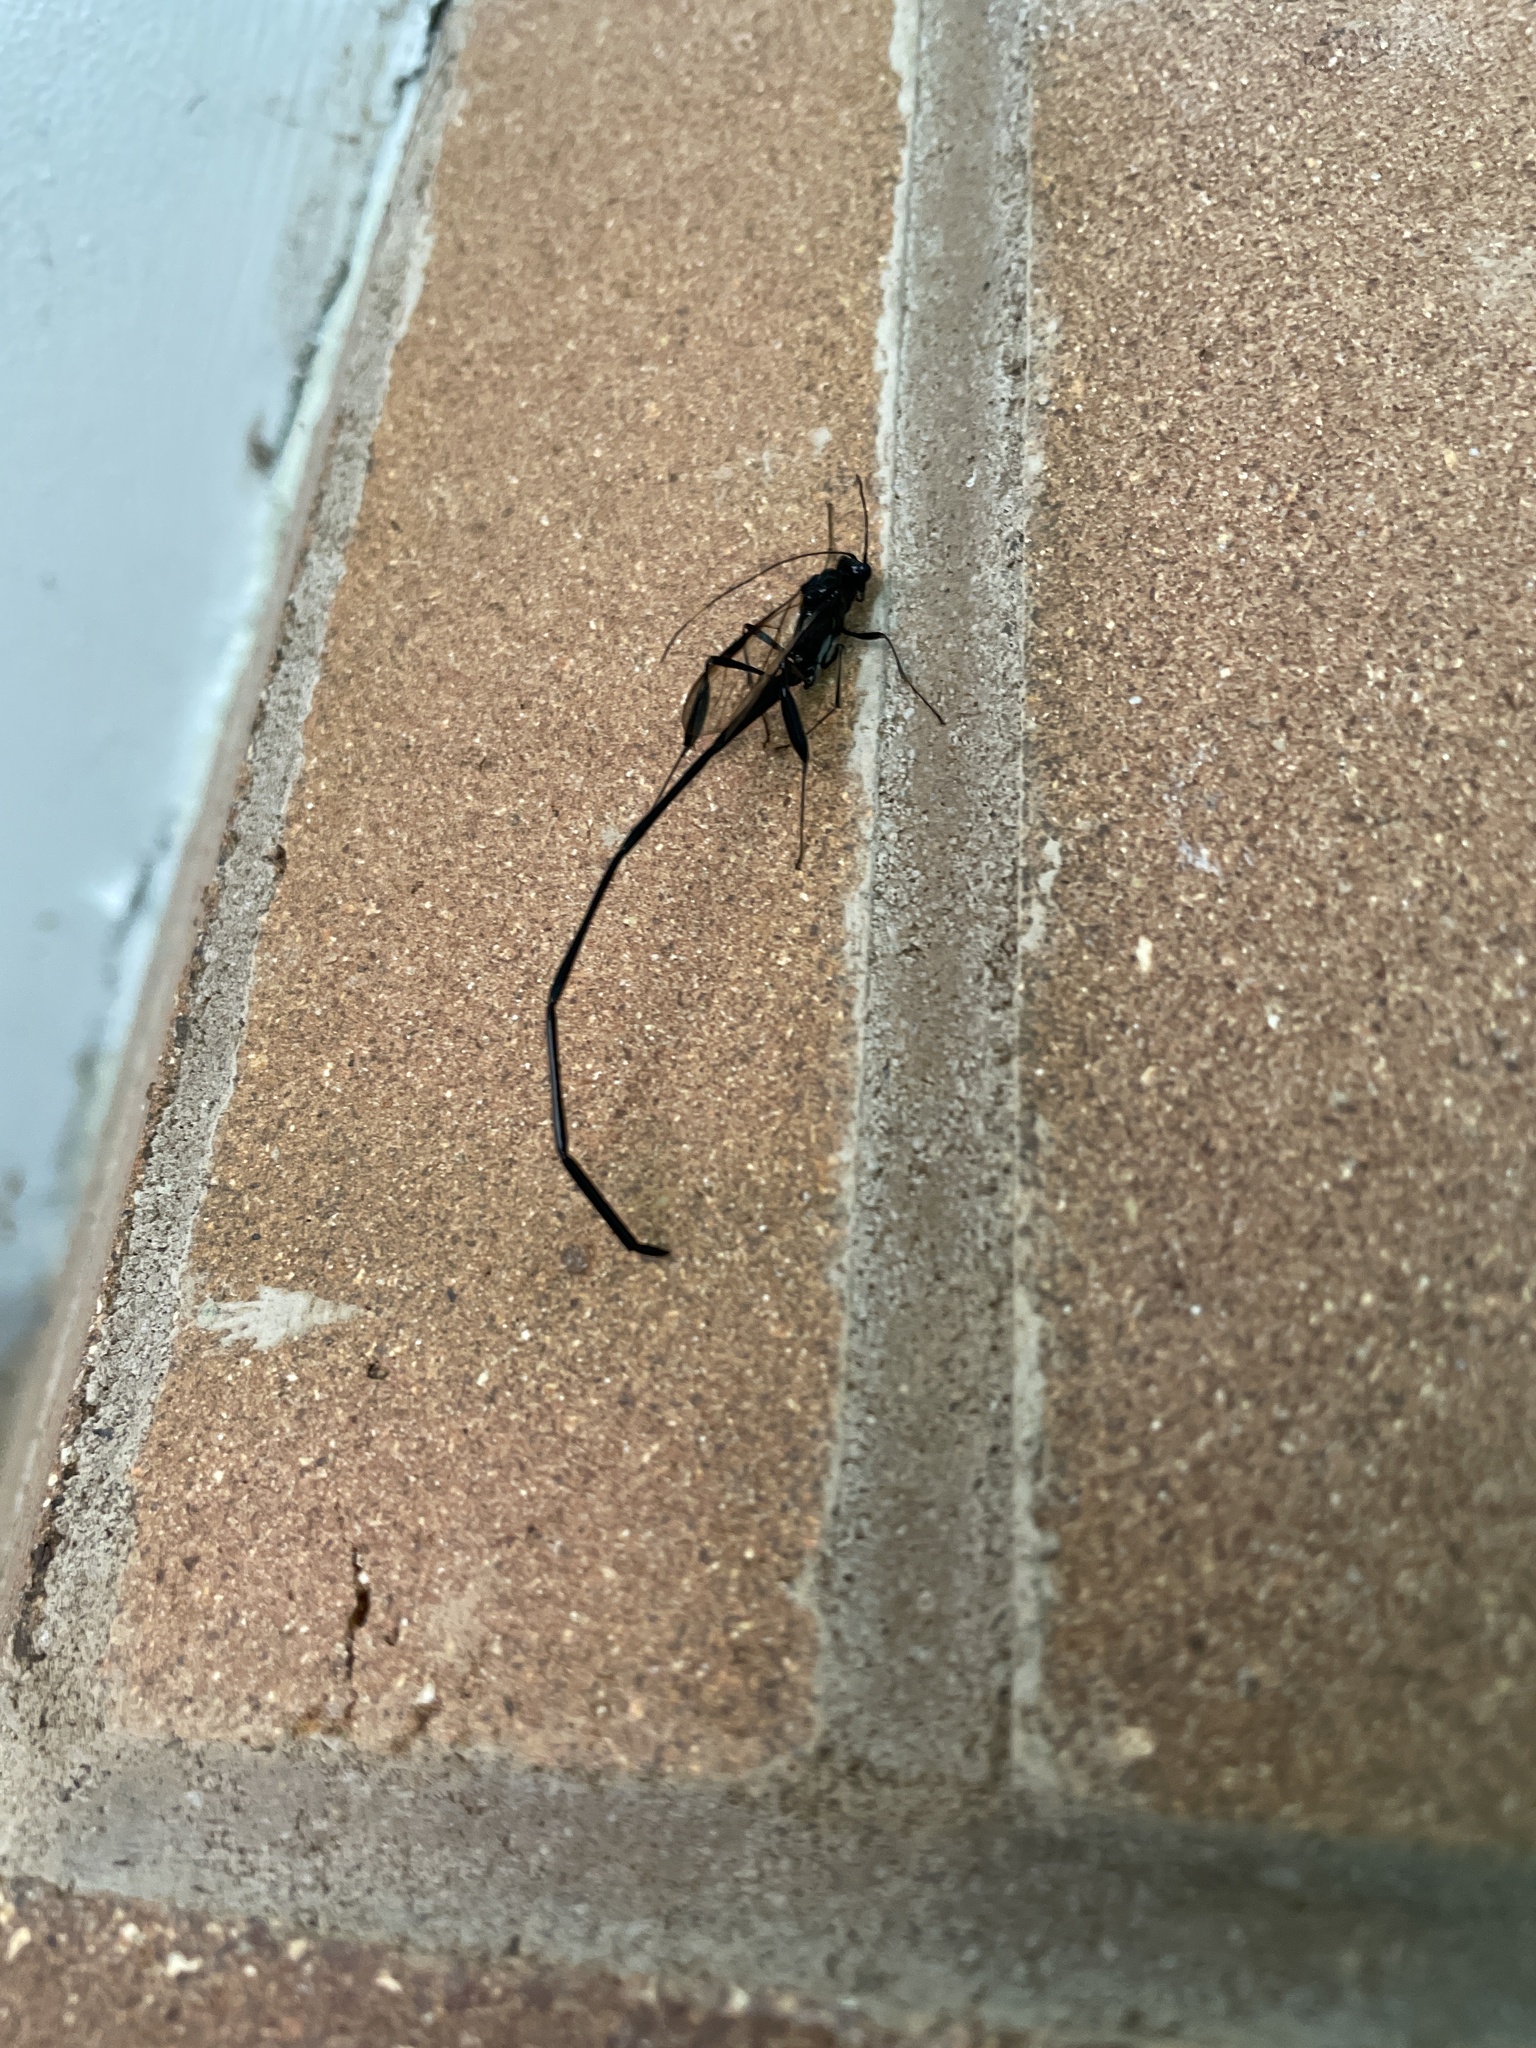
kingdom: Animalia
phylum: Arthropoda
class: Insecta
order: Hymenoptera
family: Pelecinidae
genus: Pelecinus
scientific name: Pelecinus polyturator
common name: American pelecinid wasp
